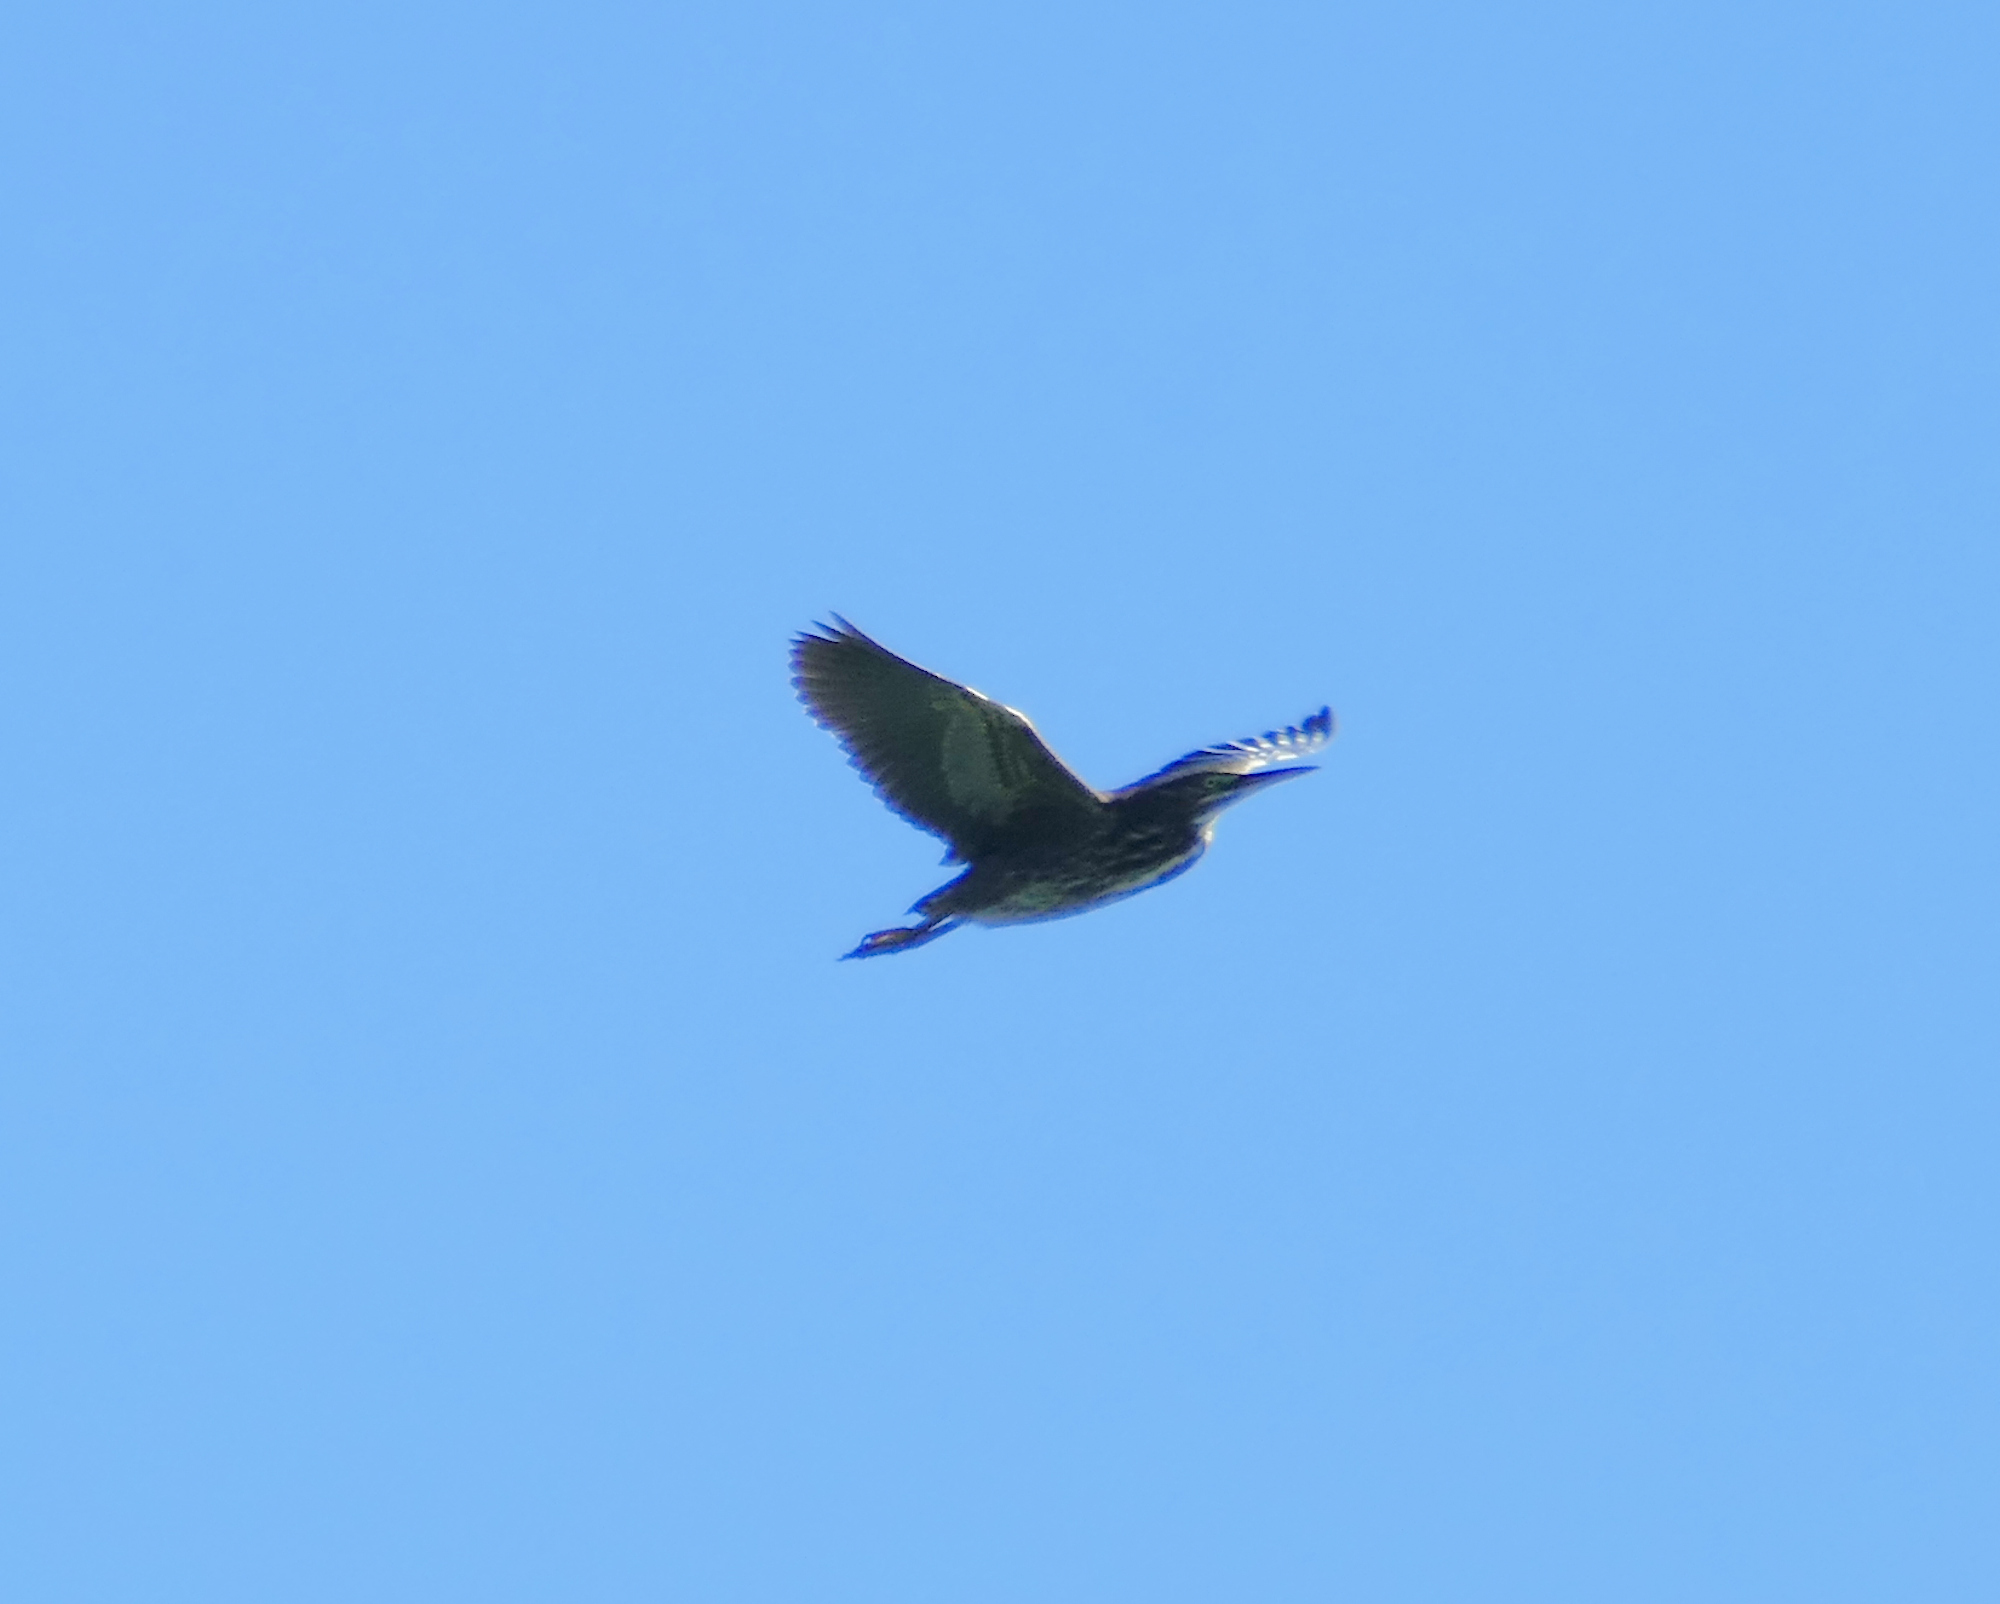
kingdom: Animalia
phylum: Chordata
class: Aves
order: Pelecaniformes
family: Ardeidae
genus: Butorides
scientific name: Butorides virescens
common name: Green heron
